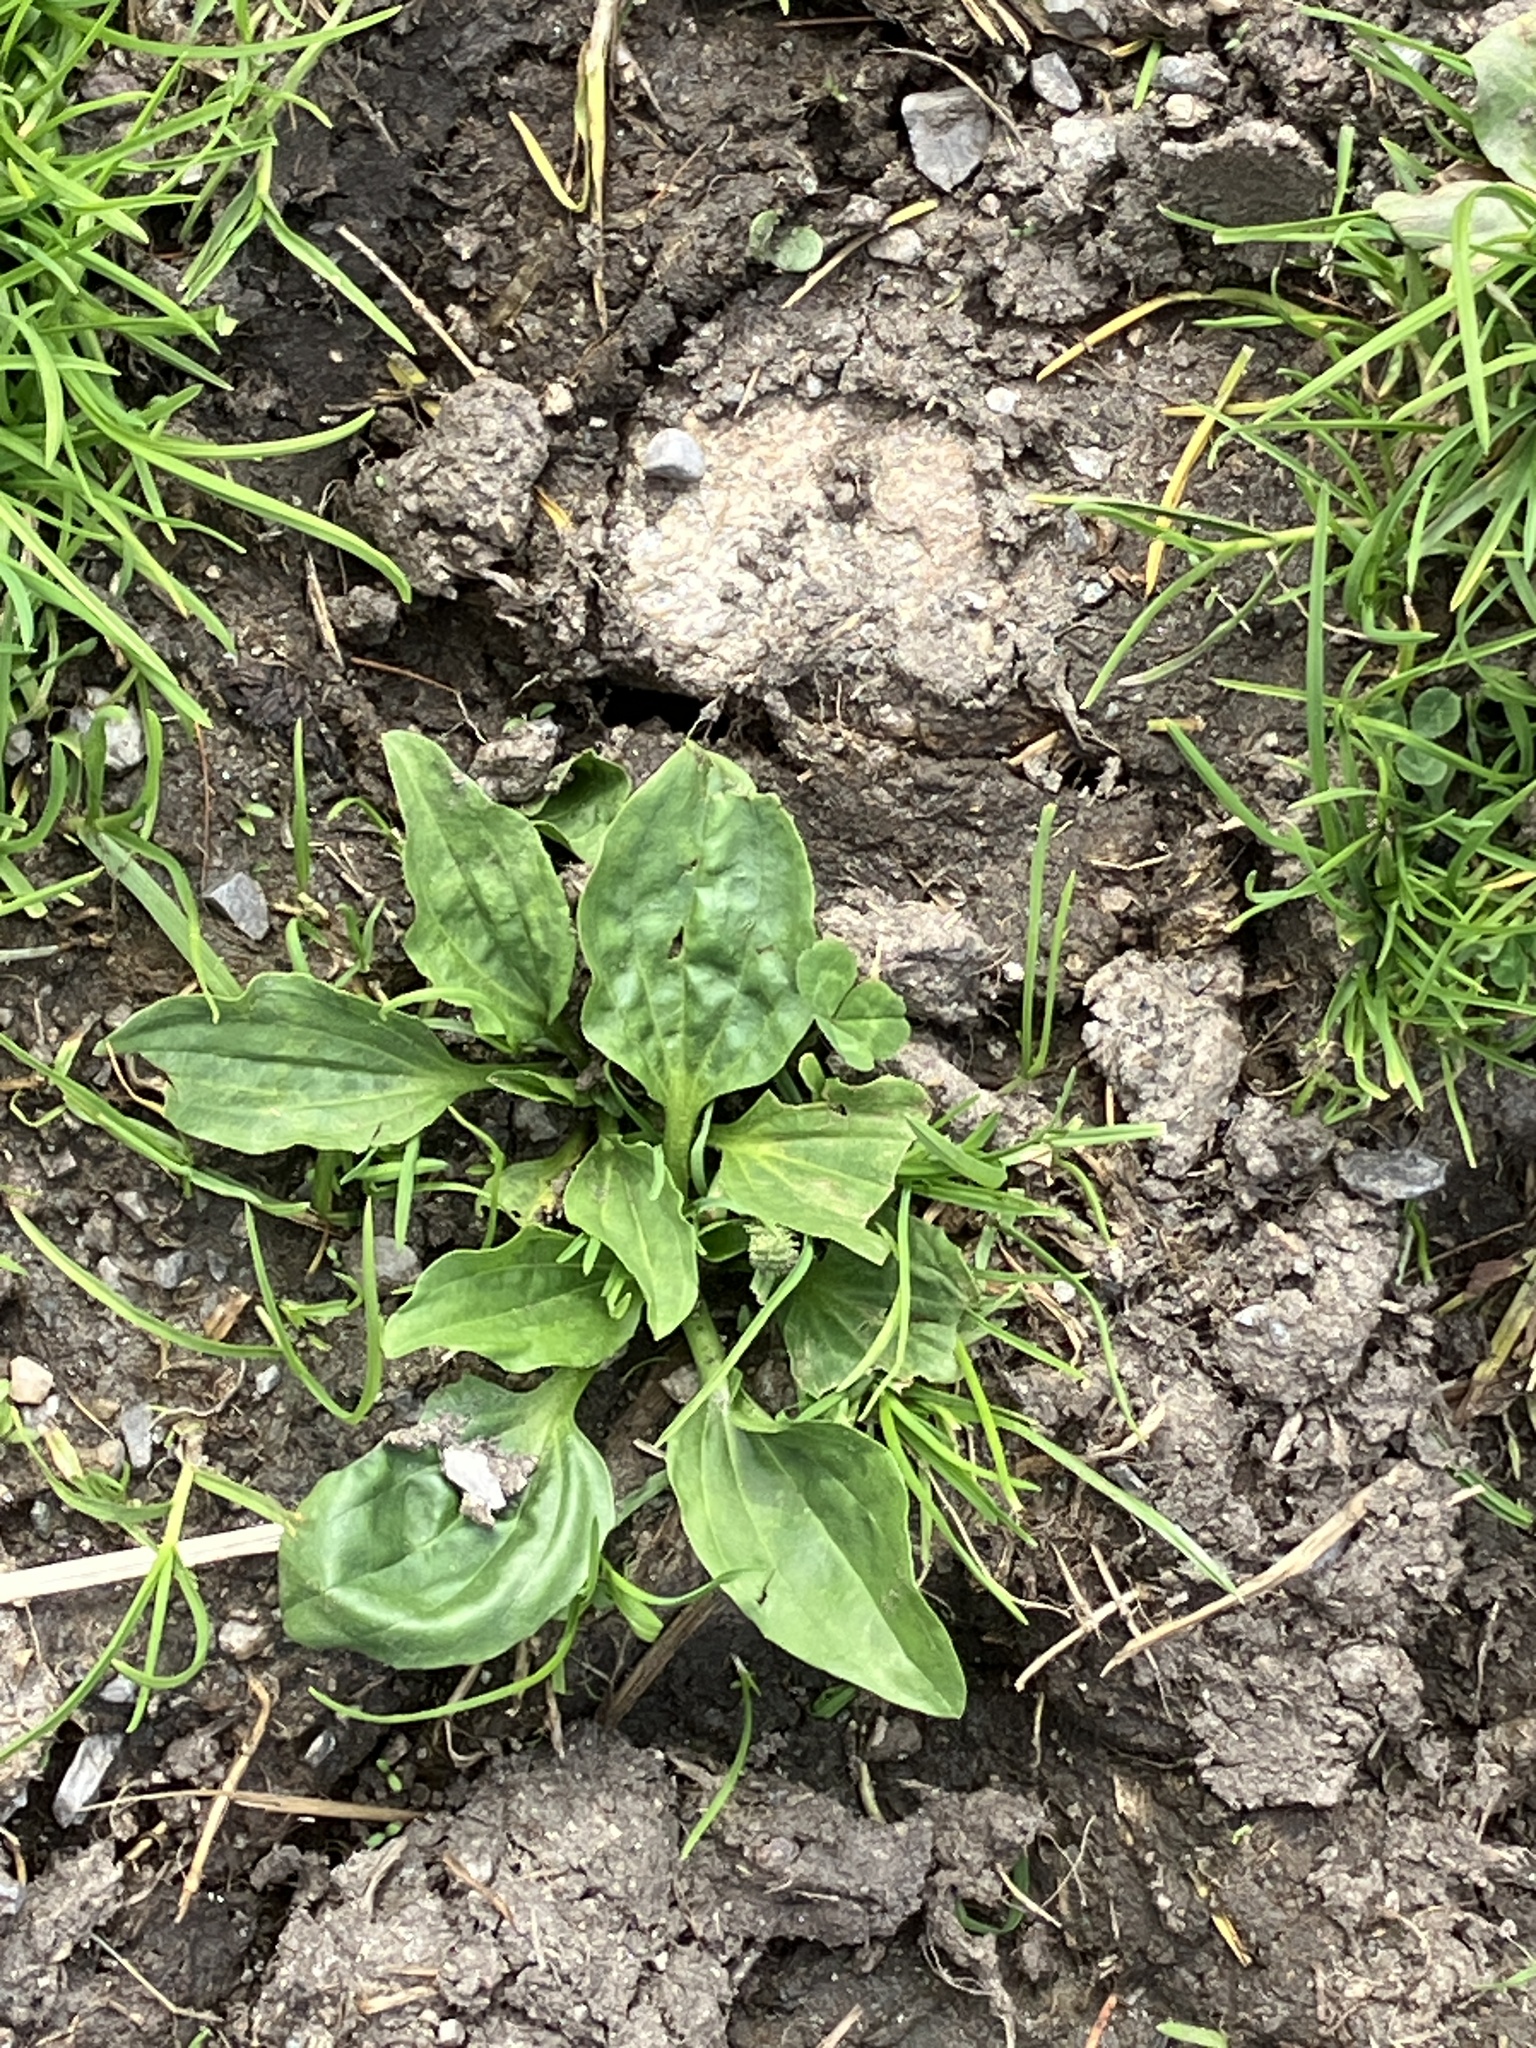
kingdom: Plantae
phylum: Tracheophyta
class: Magnoliopsida
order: Lamiales
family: Plantaginaceae
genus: Plantago
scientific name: Plantago major
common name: Common plantain
